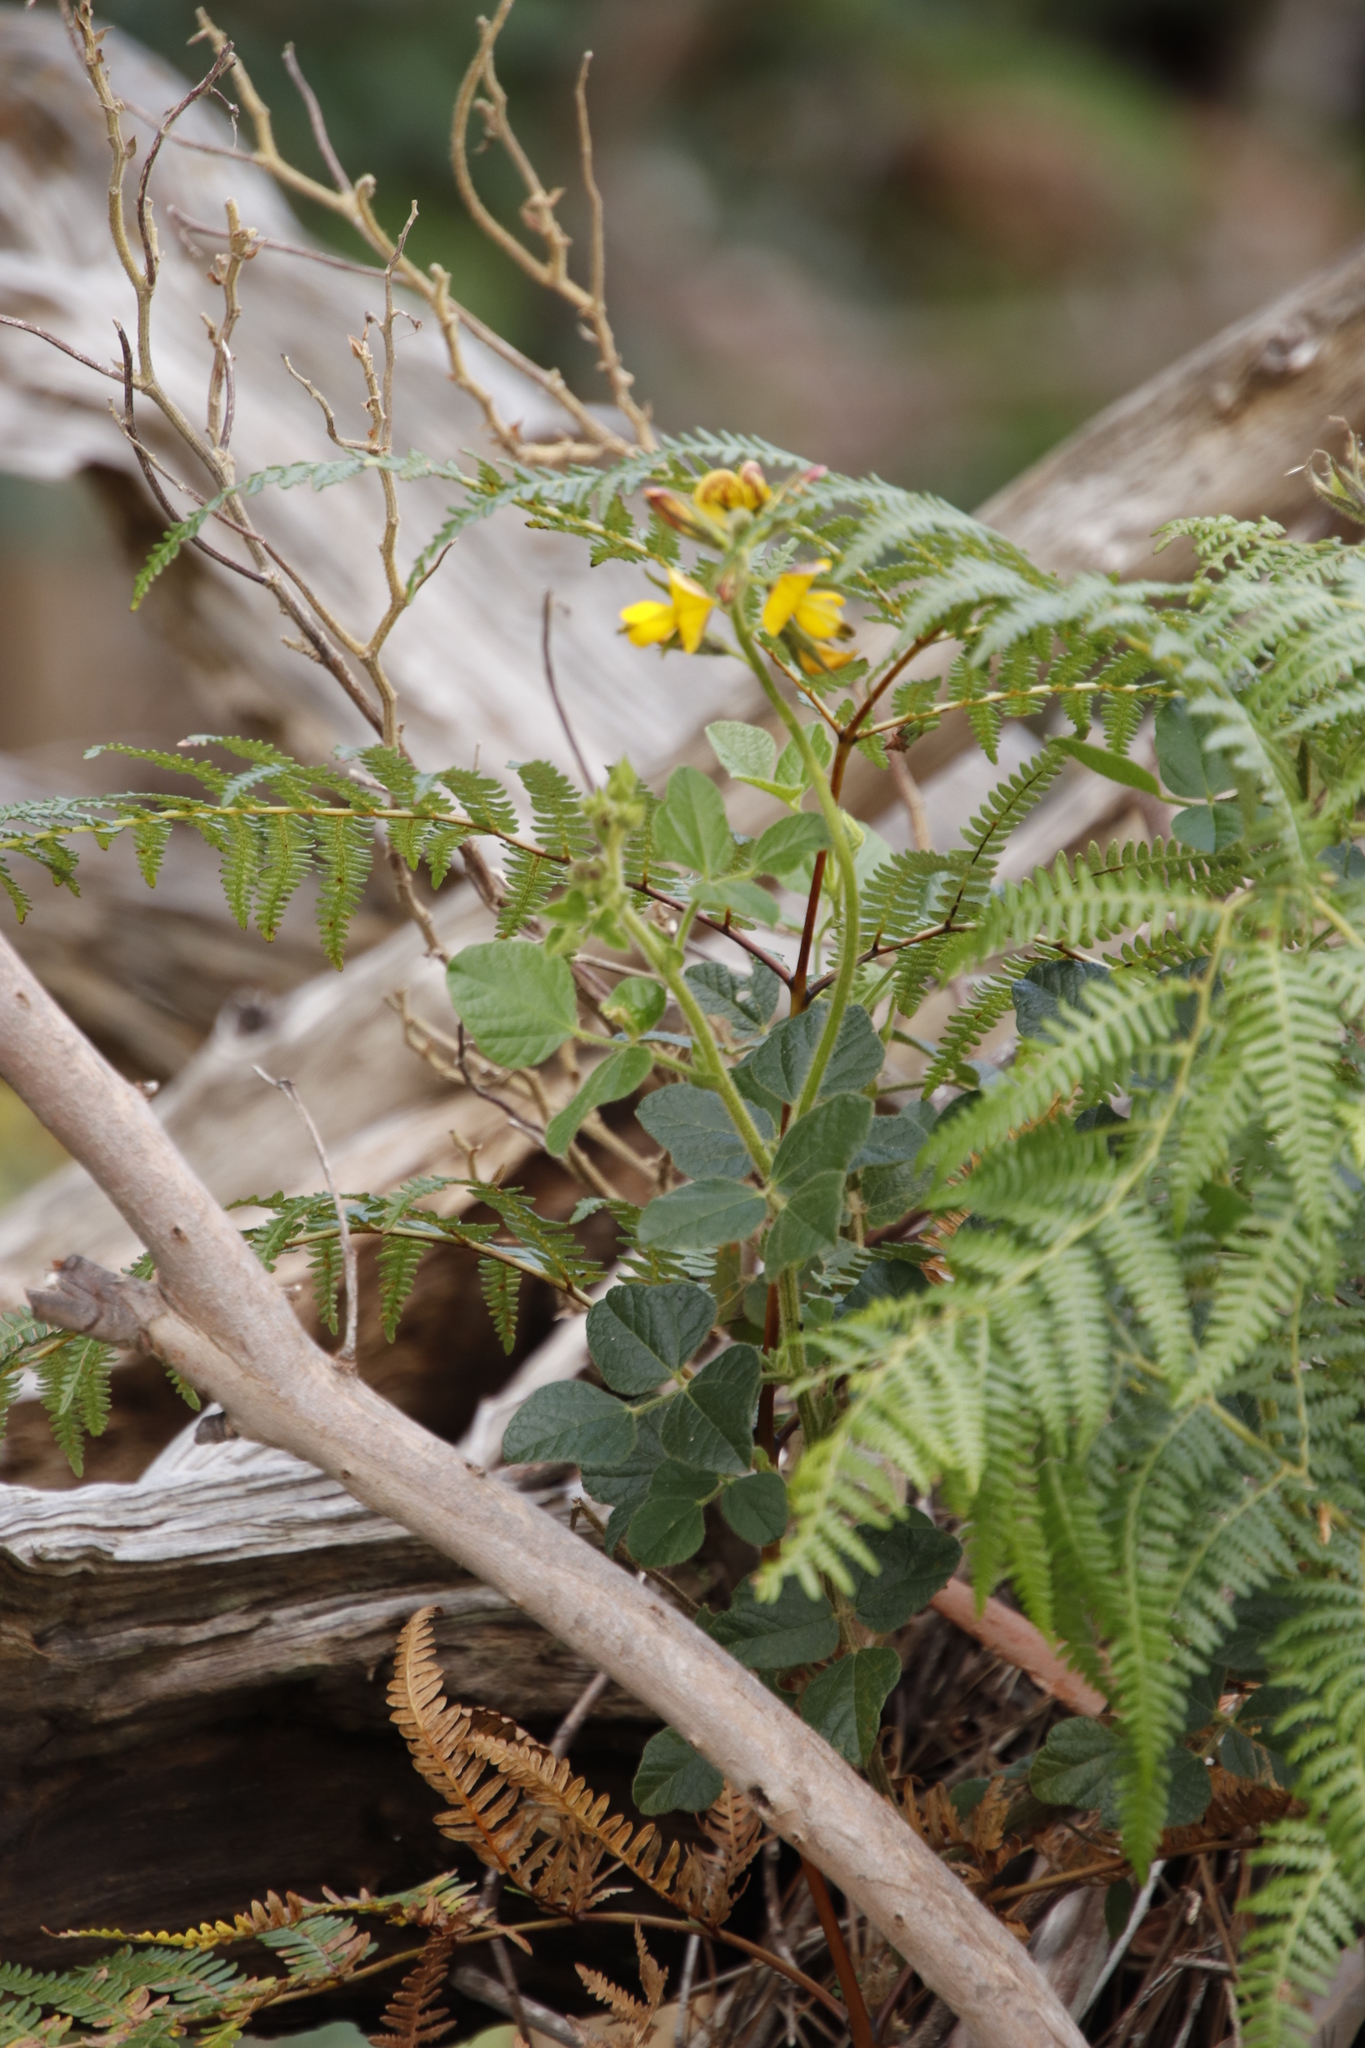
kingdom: Plantae
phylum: Tracheophyta
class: Magnoliopsida
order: Fabales
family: Fabaceae
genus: Bolusafra
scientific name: Bolusafra bituminosa
